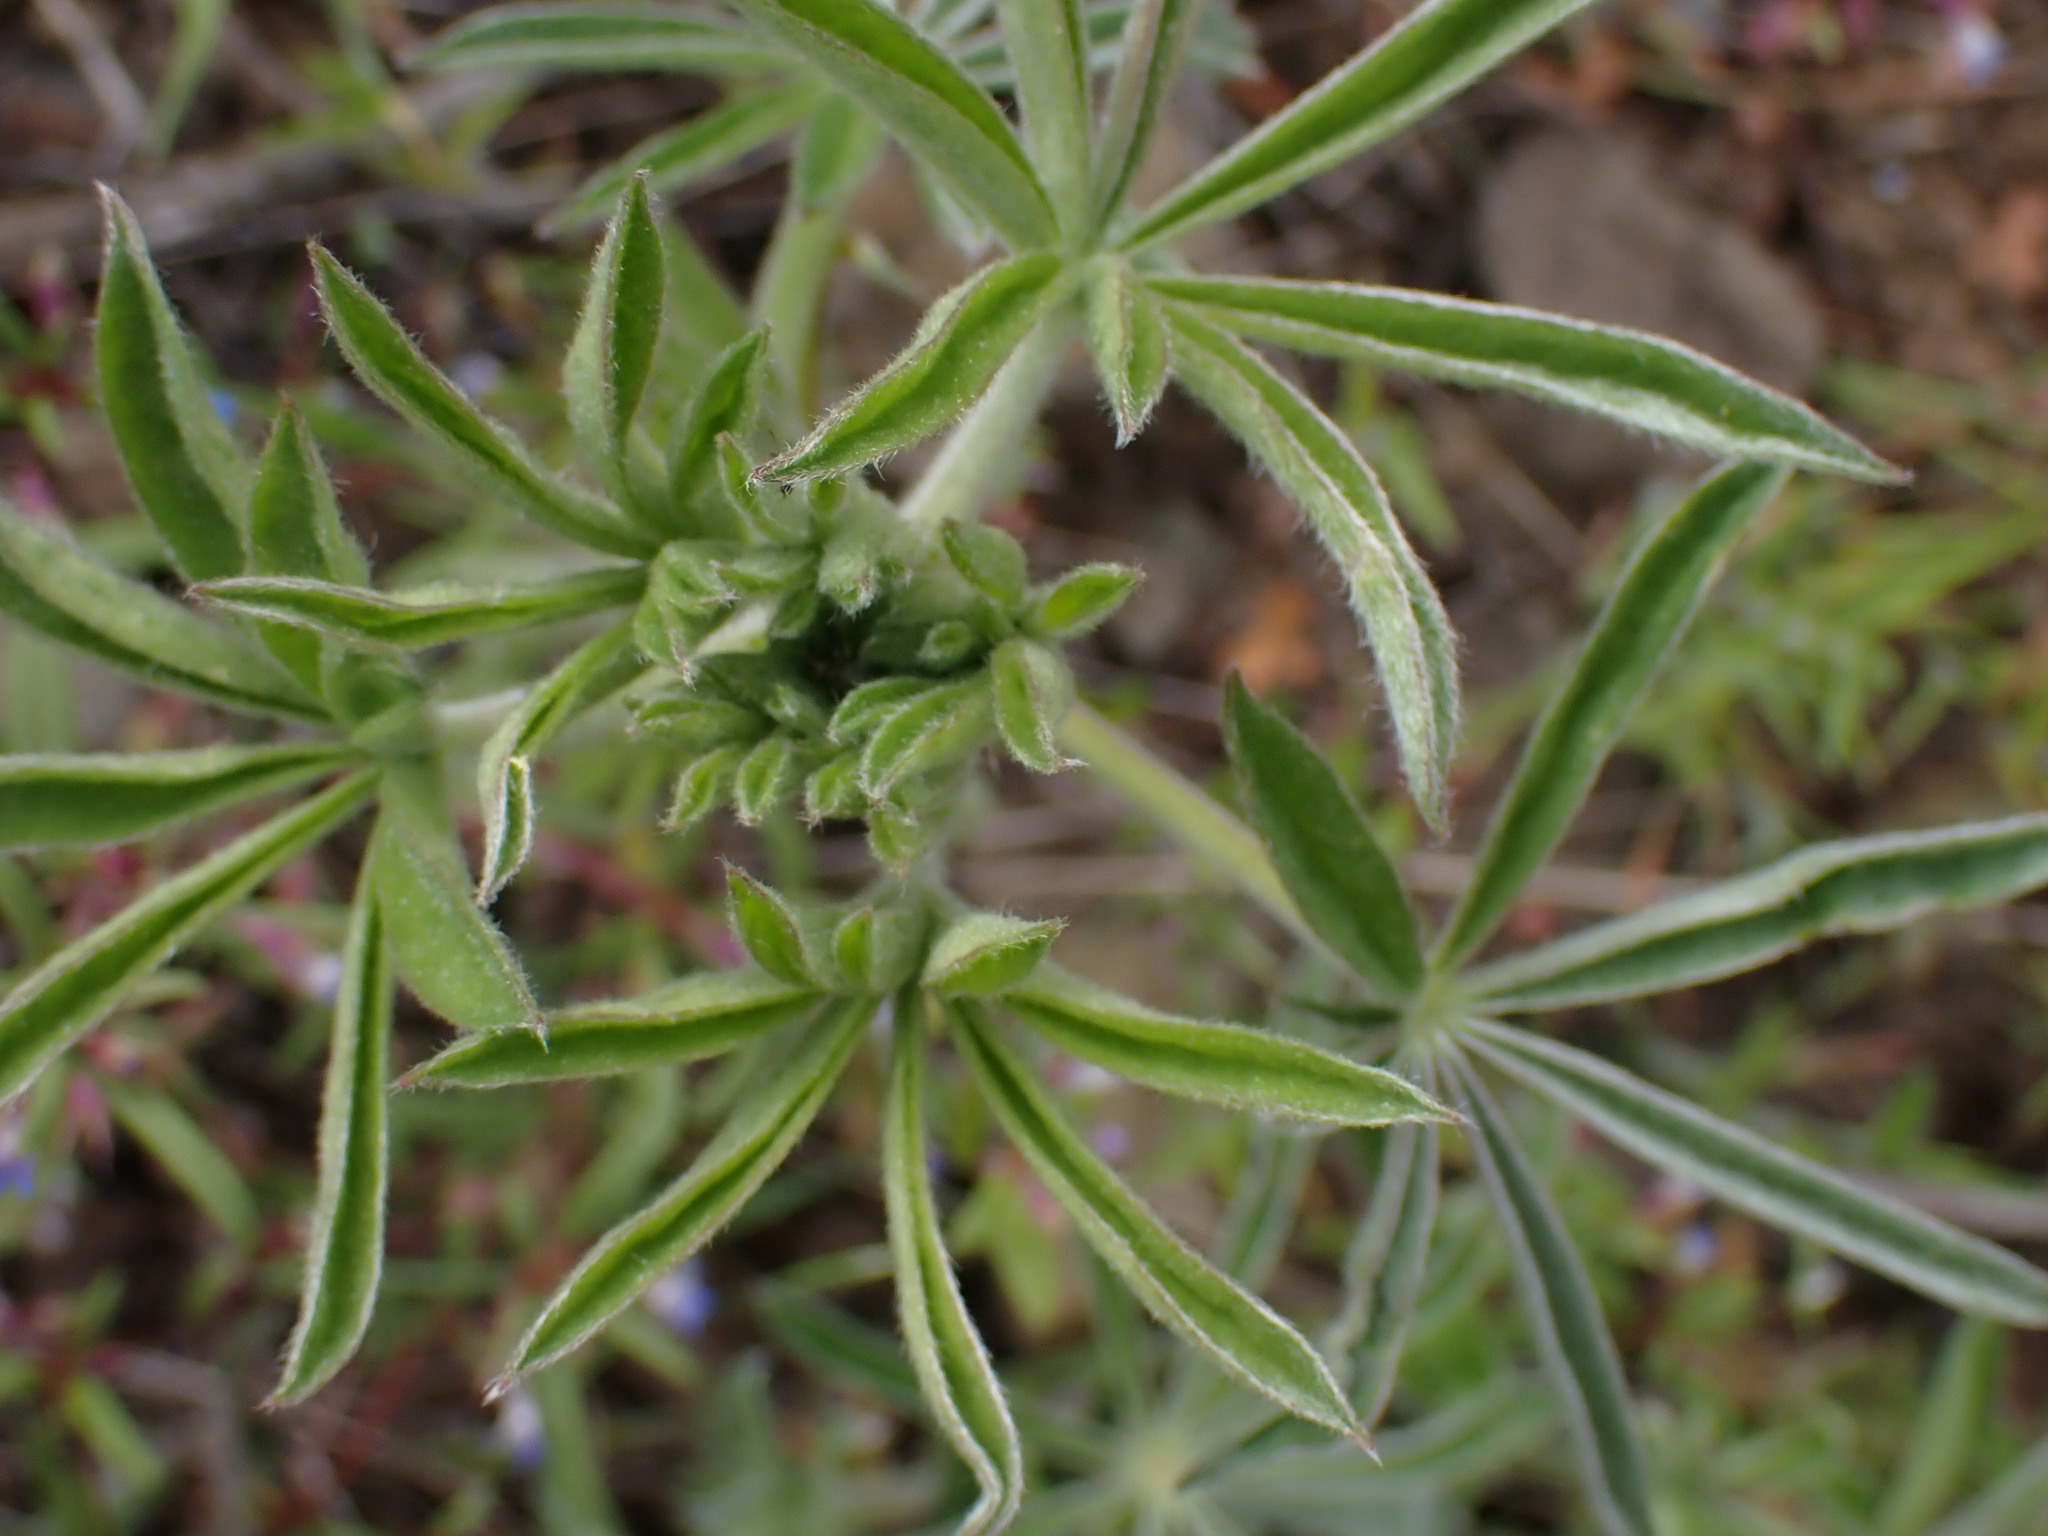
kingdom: Plantae
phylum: Tracheophyta
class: Magnoliopsida
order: Fabales
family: Fabaceae
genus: Lupinus
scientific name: Lupinus sericeus
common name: Silky lupine
